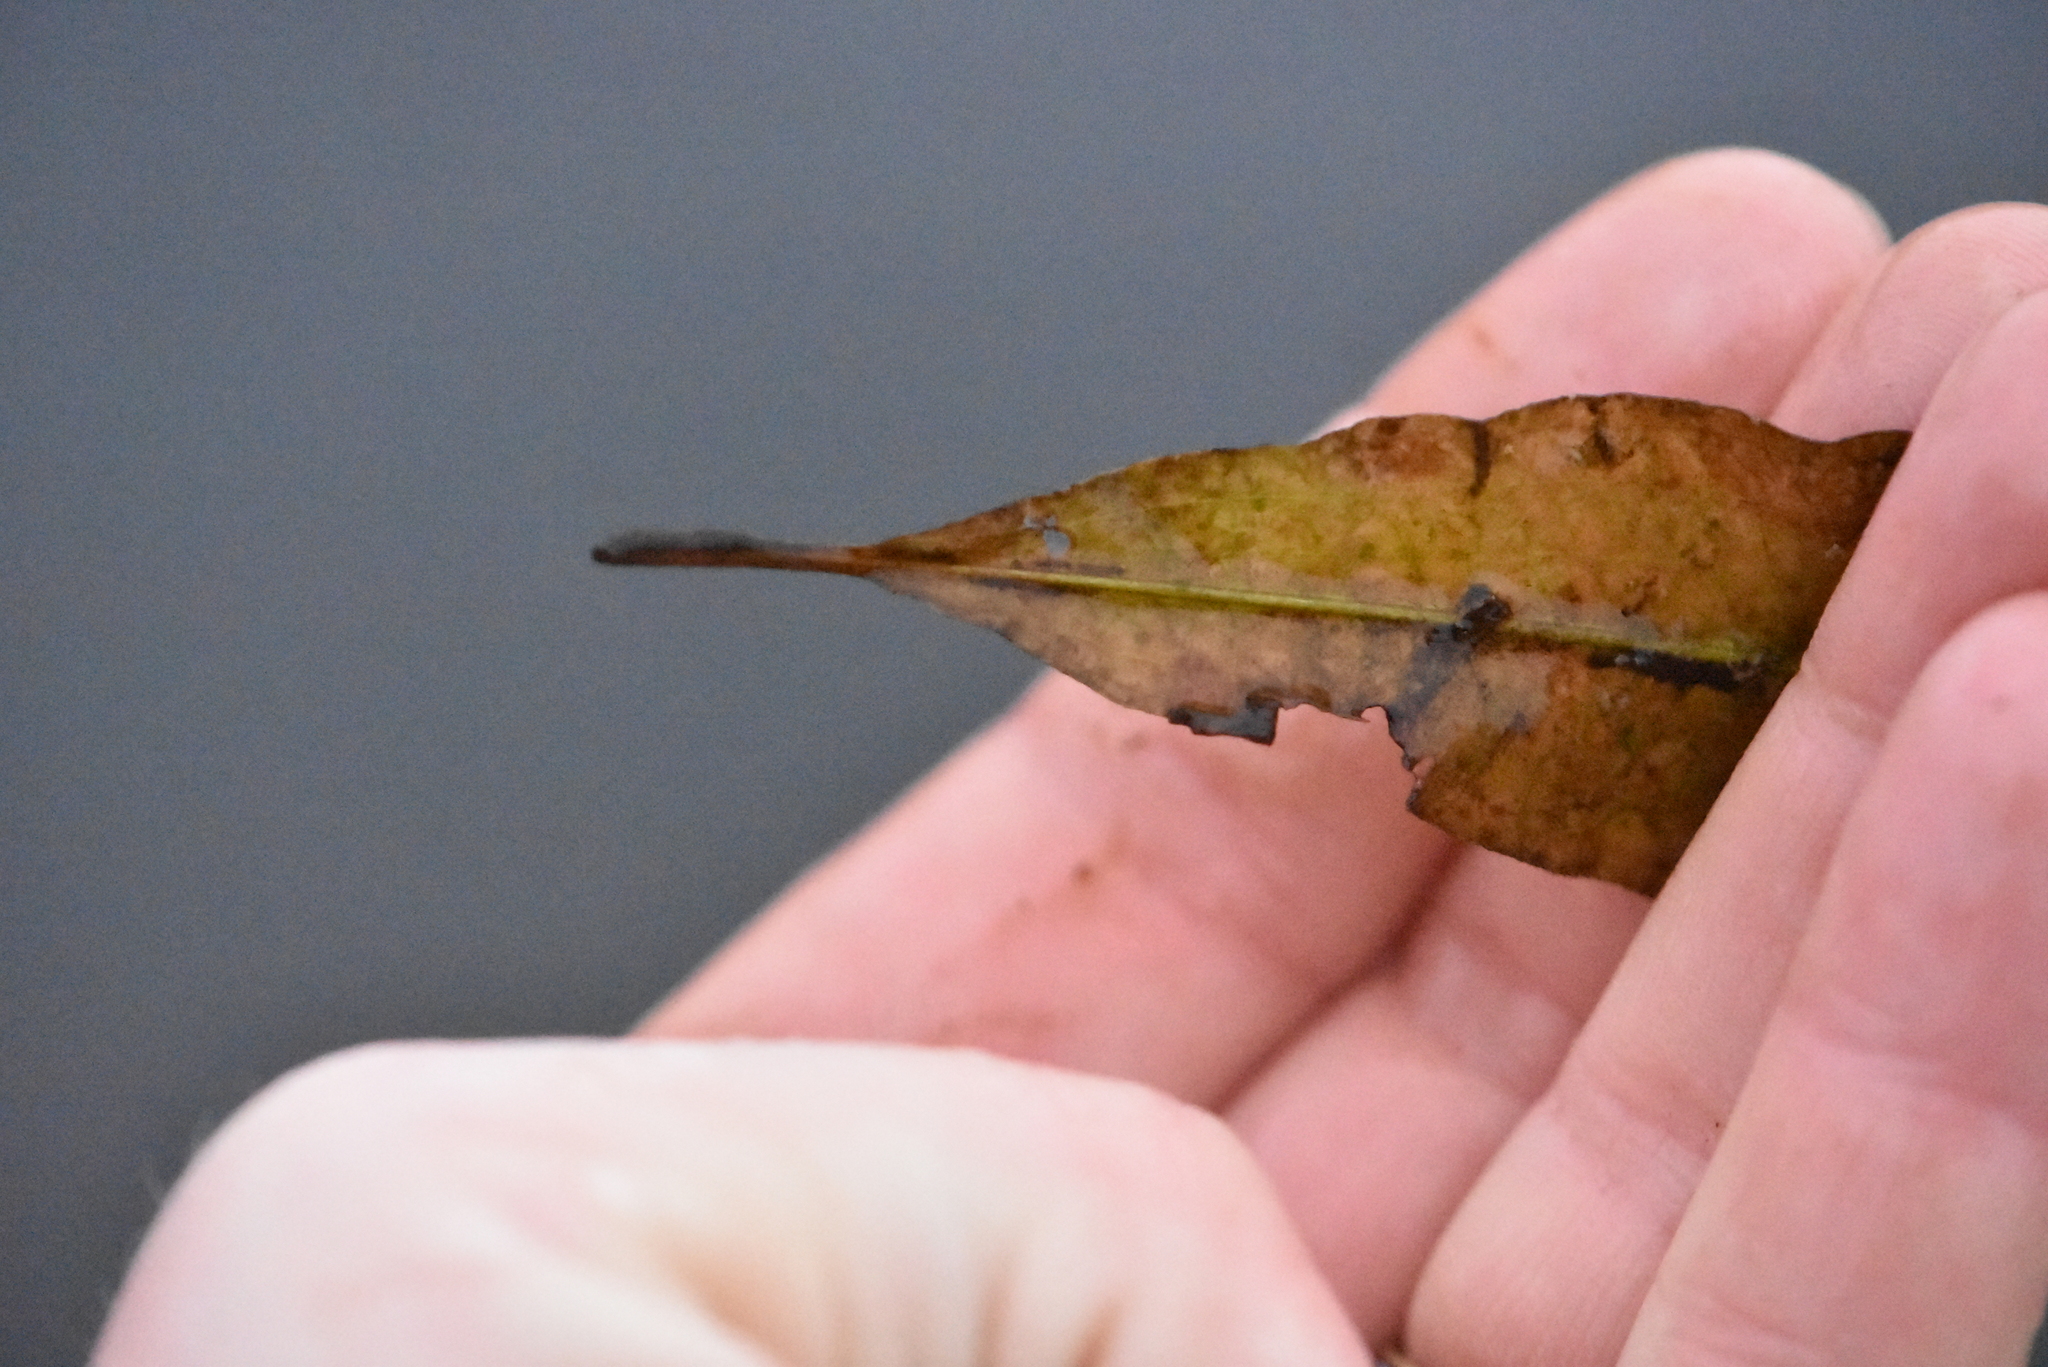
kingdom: Plantae
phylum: Tracheophyta
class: Liliopsida
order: Alismatales
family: Potamogetonaceae
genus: Potamogeton
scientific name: Potamogeton lucens
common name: Shining pondweed
